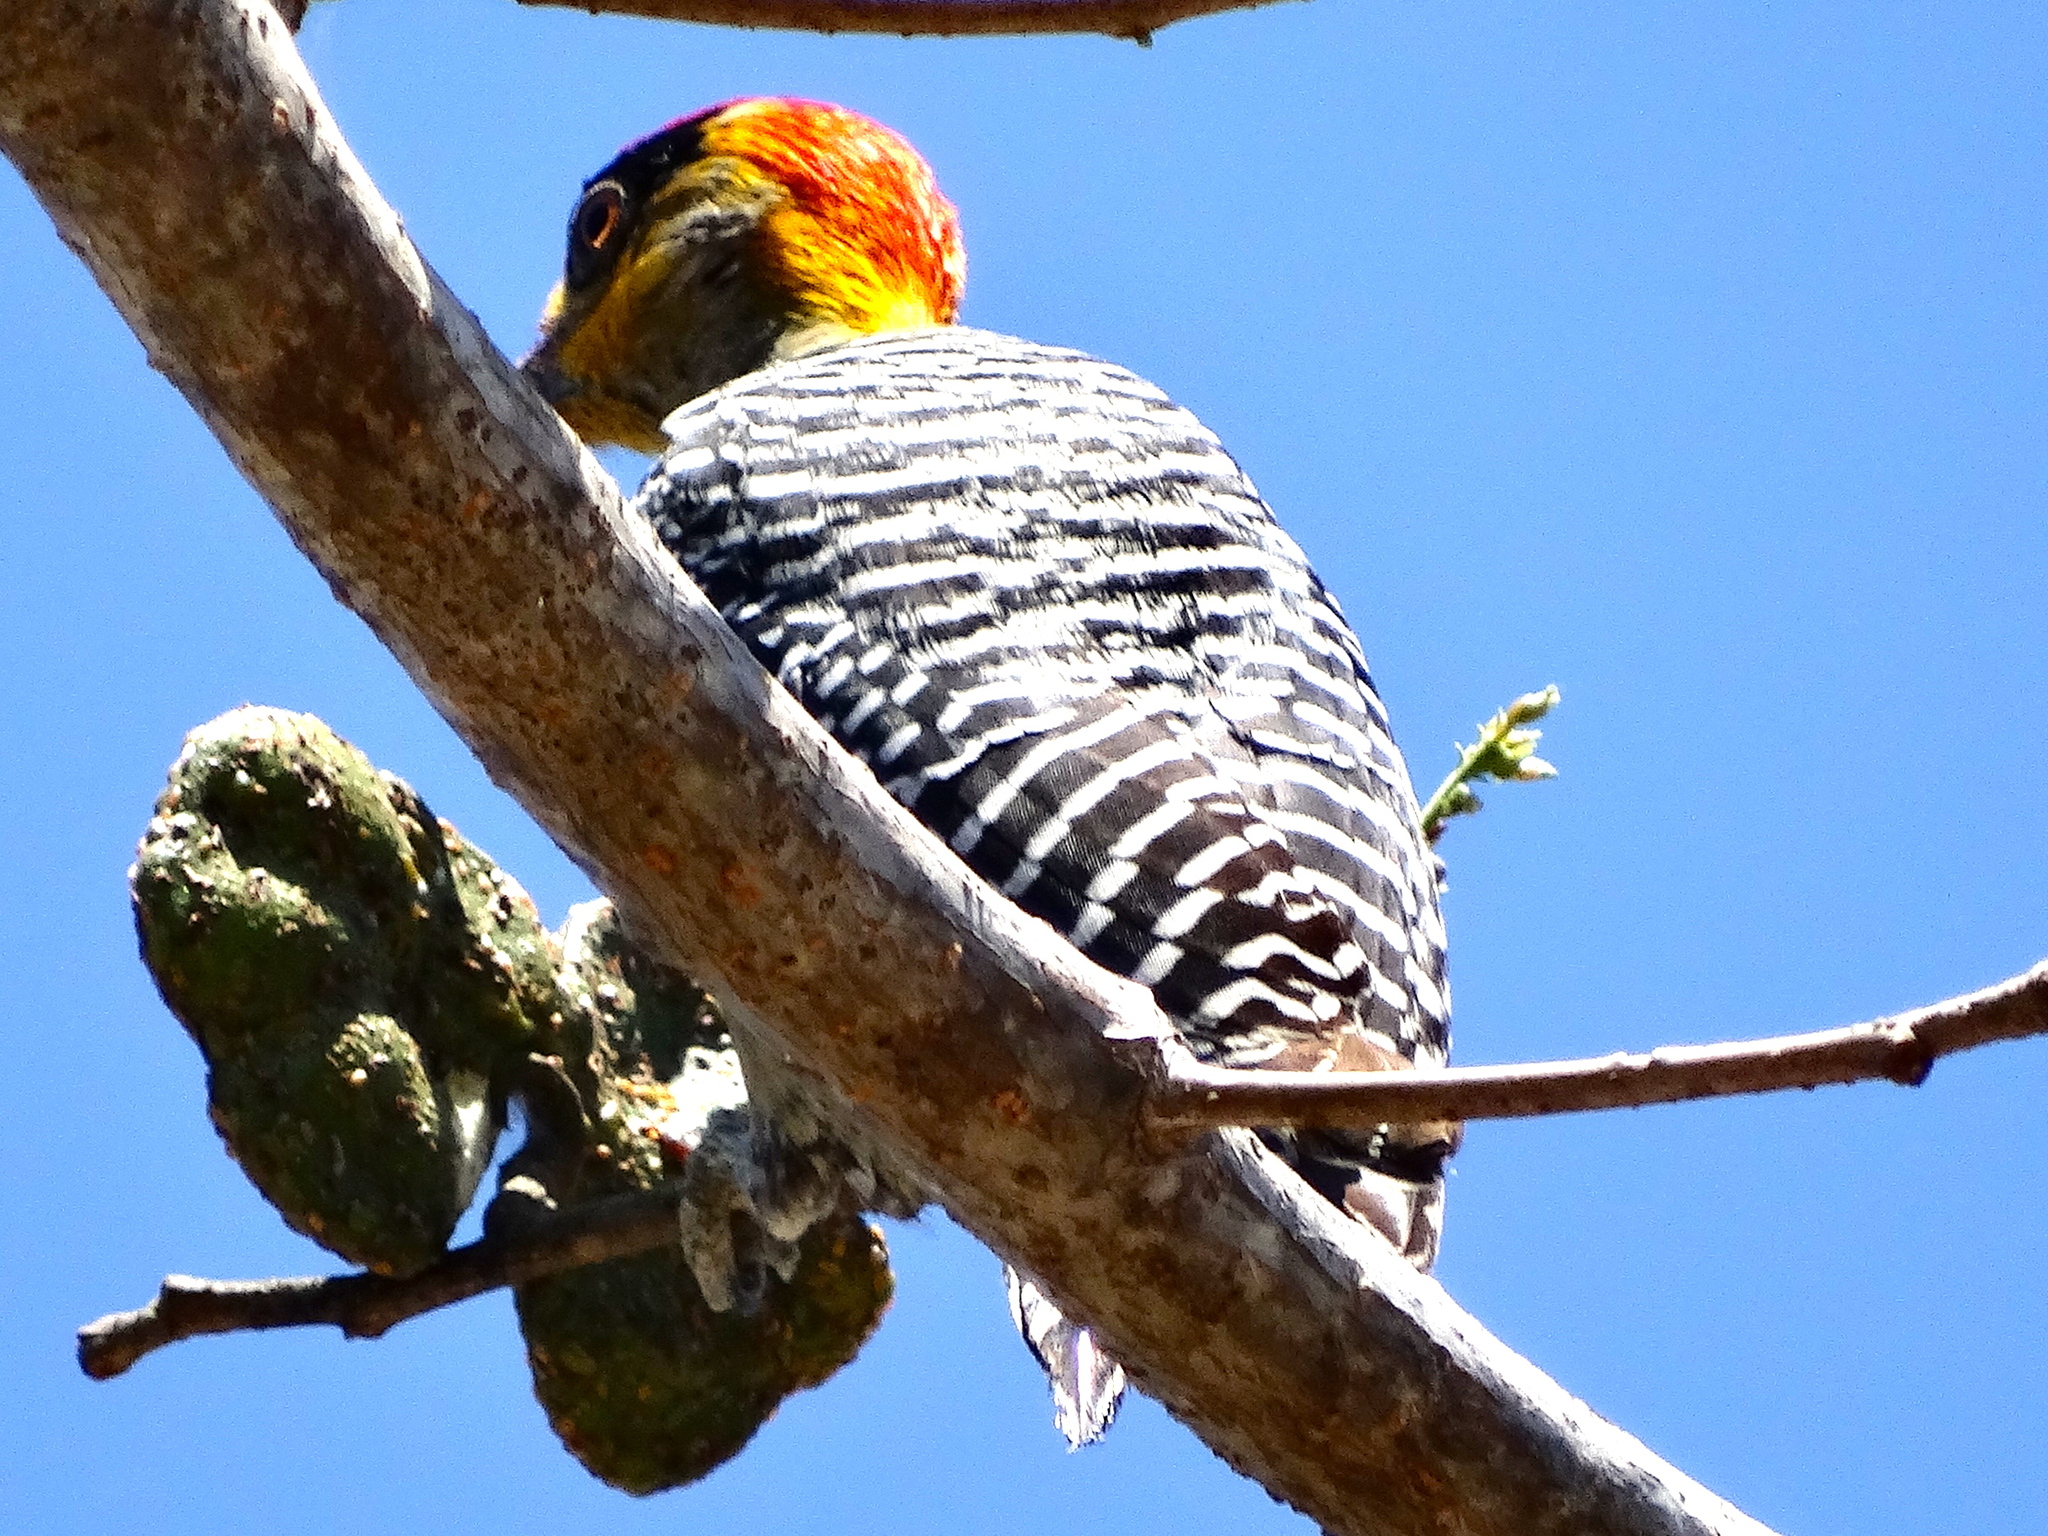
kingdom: Animalia
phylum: Chordata
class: Aves
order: Piciformes
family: Picidae
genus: Melanerpes
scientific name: Melanerpes chrysogenys
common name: Golden-cheeked woodpecker
